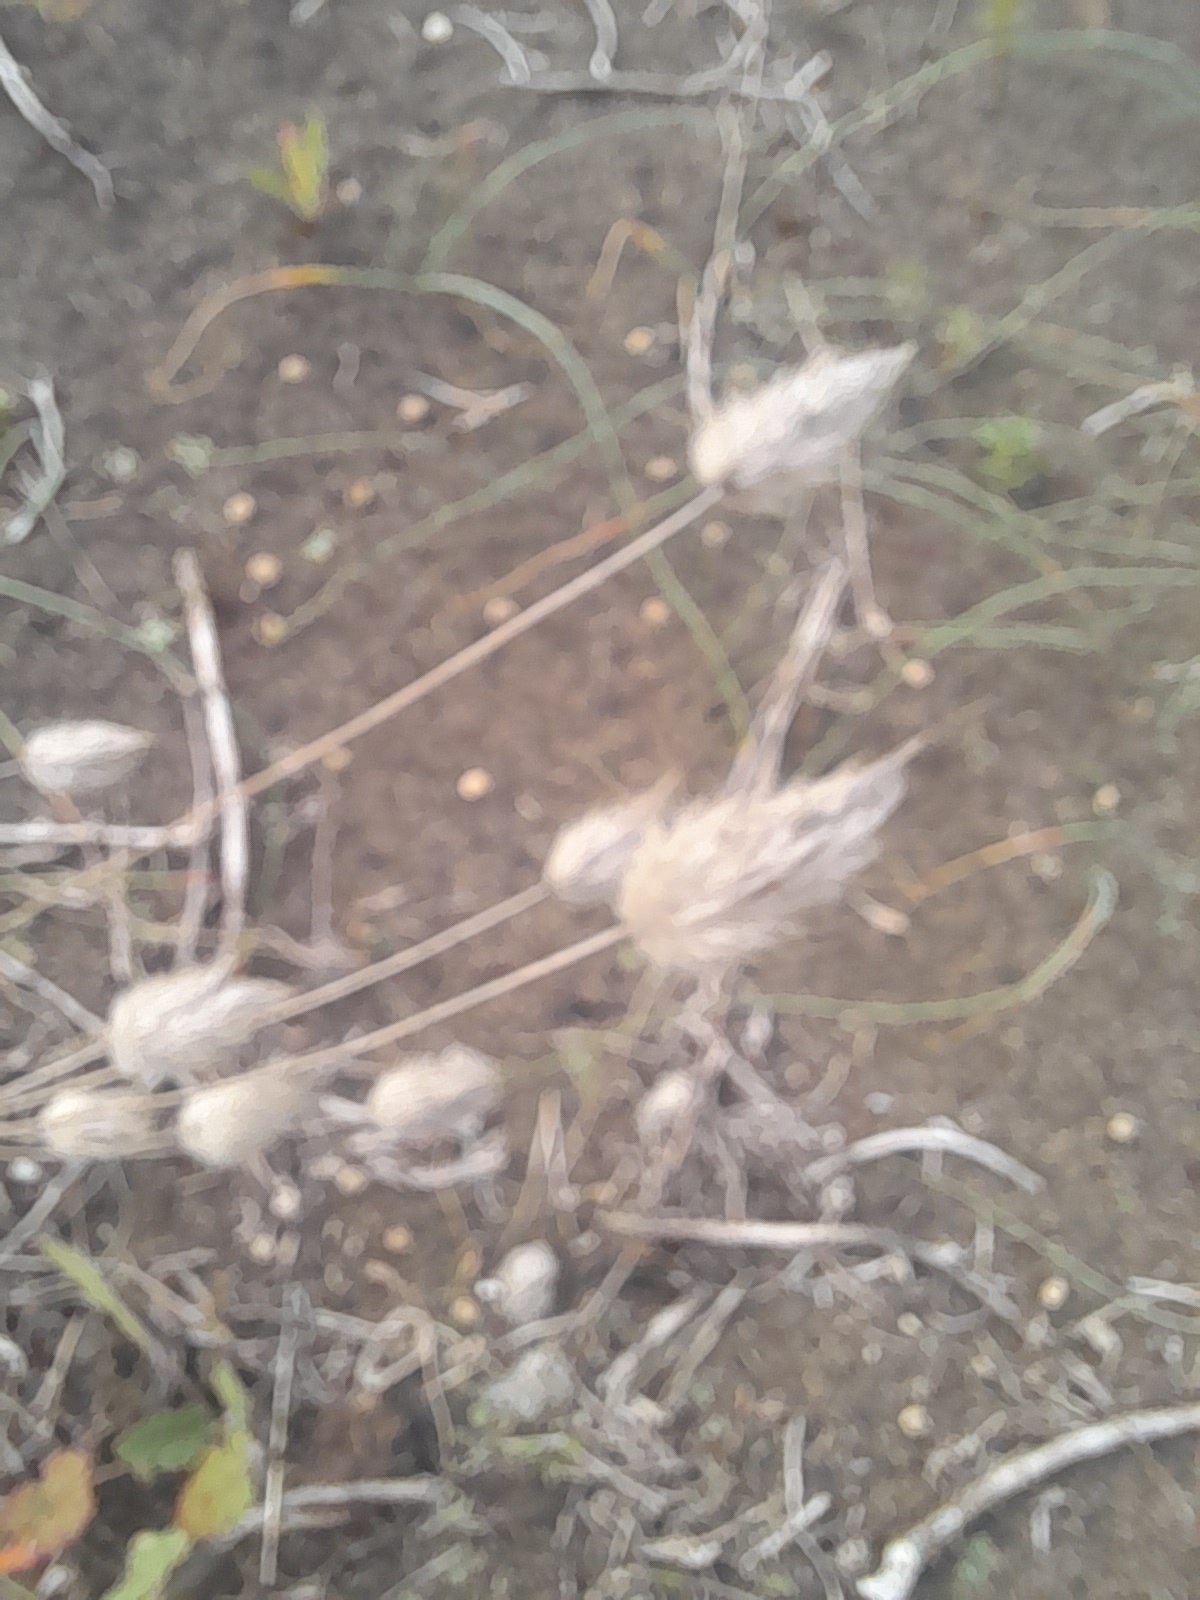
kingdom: Plantae
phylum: Tracheophyta
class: Liliopsida
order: Poales
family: Poaceae
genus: Lagurus
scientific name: Lagurus ovatus
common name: Hare's-tail
